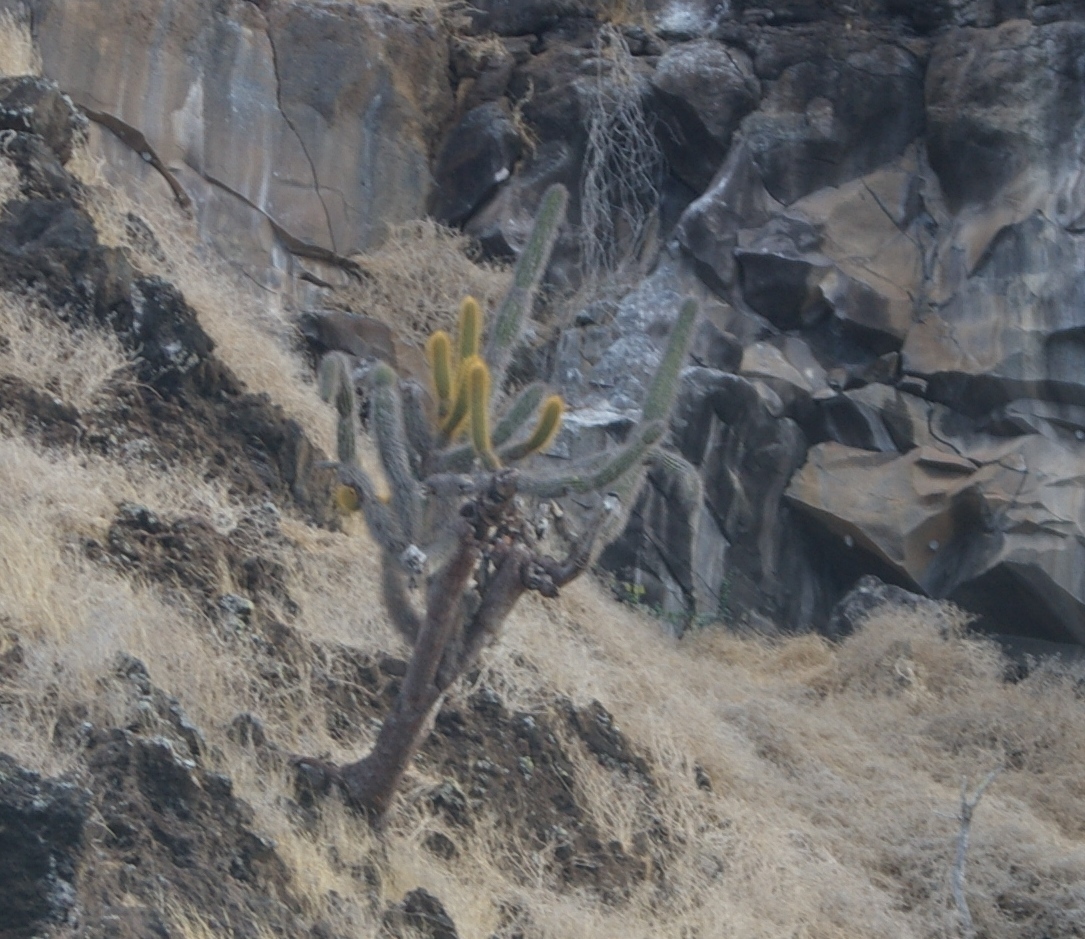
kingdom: Plantae
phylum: Tracheophyta
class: Magnoliopsida
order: Caryophyllales
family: Cactaceae
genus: Jasminocereus
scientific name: Jasminocereus thouarsii
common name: Candelabra cactus
